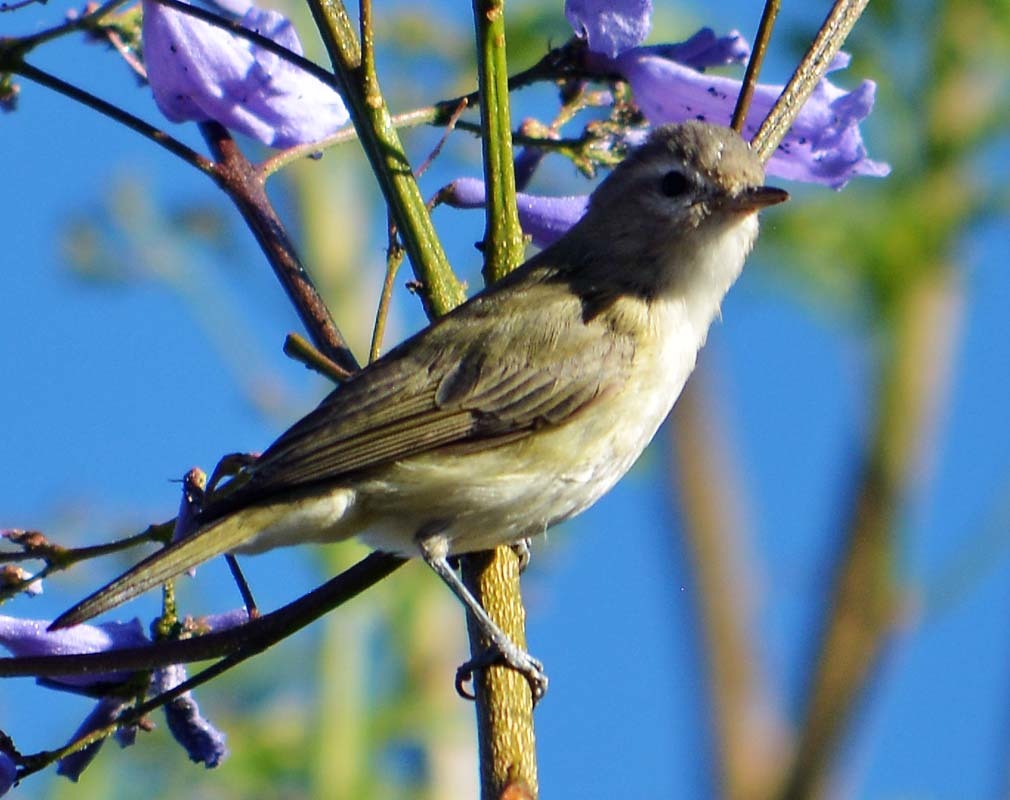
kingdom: Animalia
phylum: Chordata
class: Aves
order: Passeriformes
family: Vireonidae
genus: Vireo
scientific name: Vireo gilvus
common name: Warbling vireo
